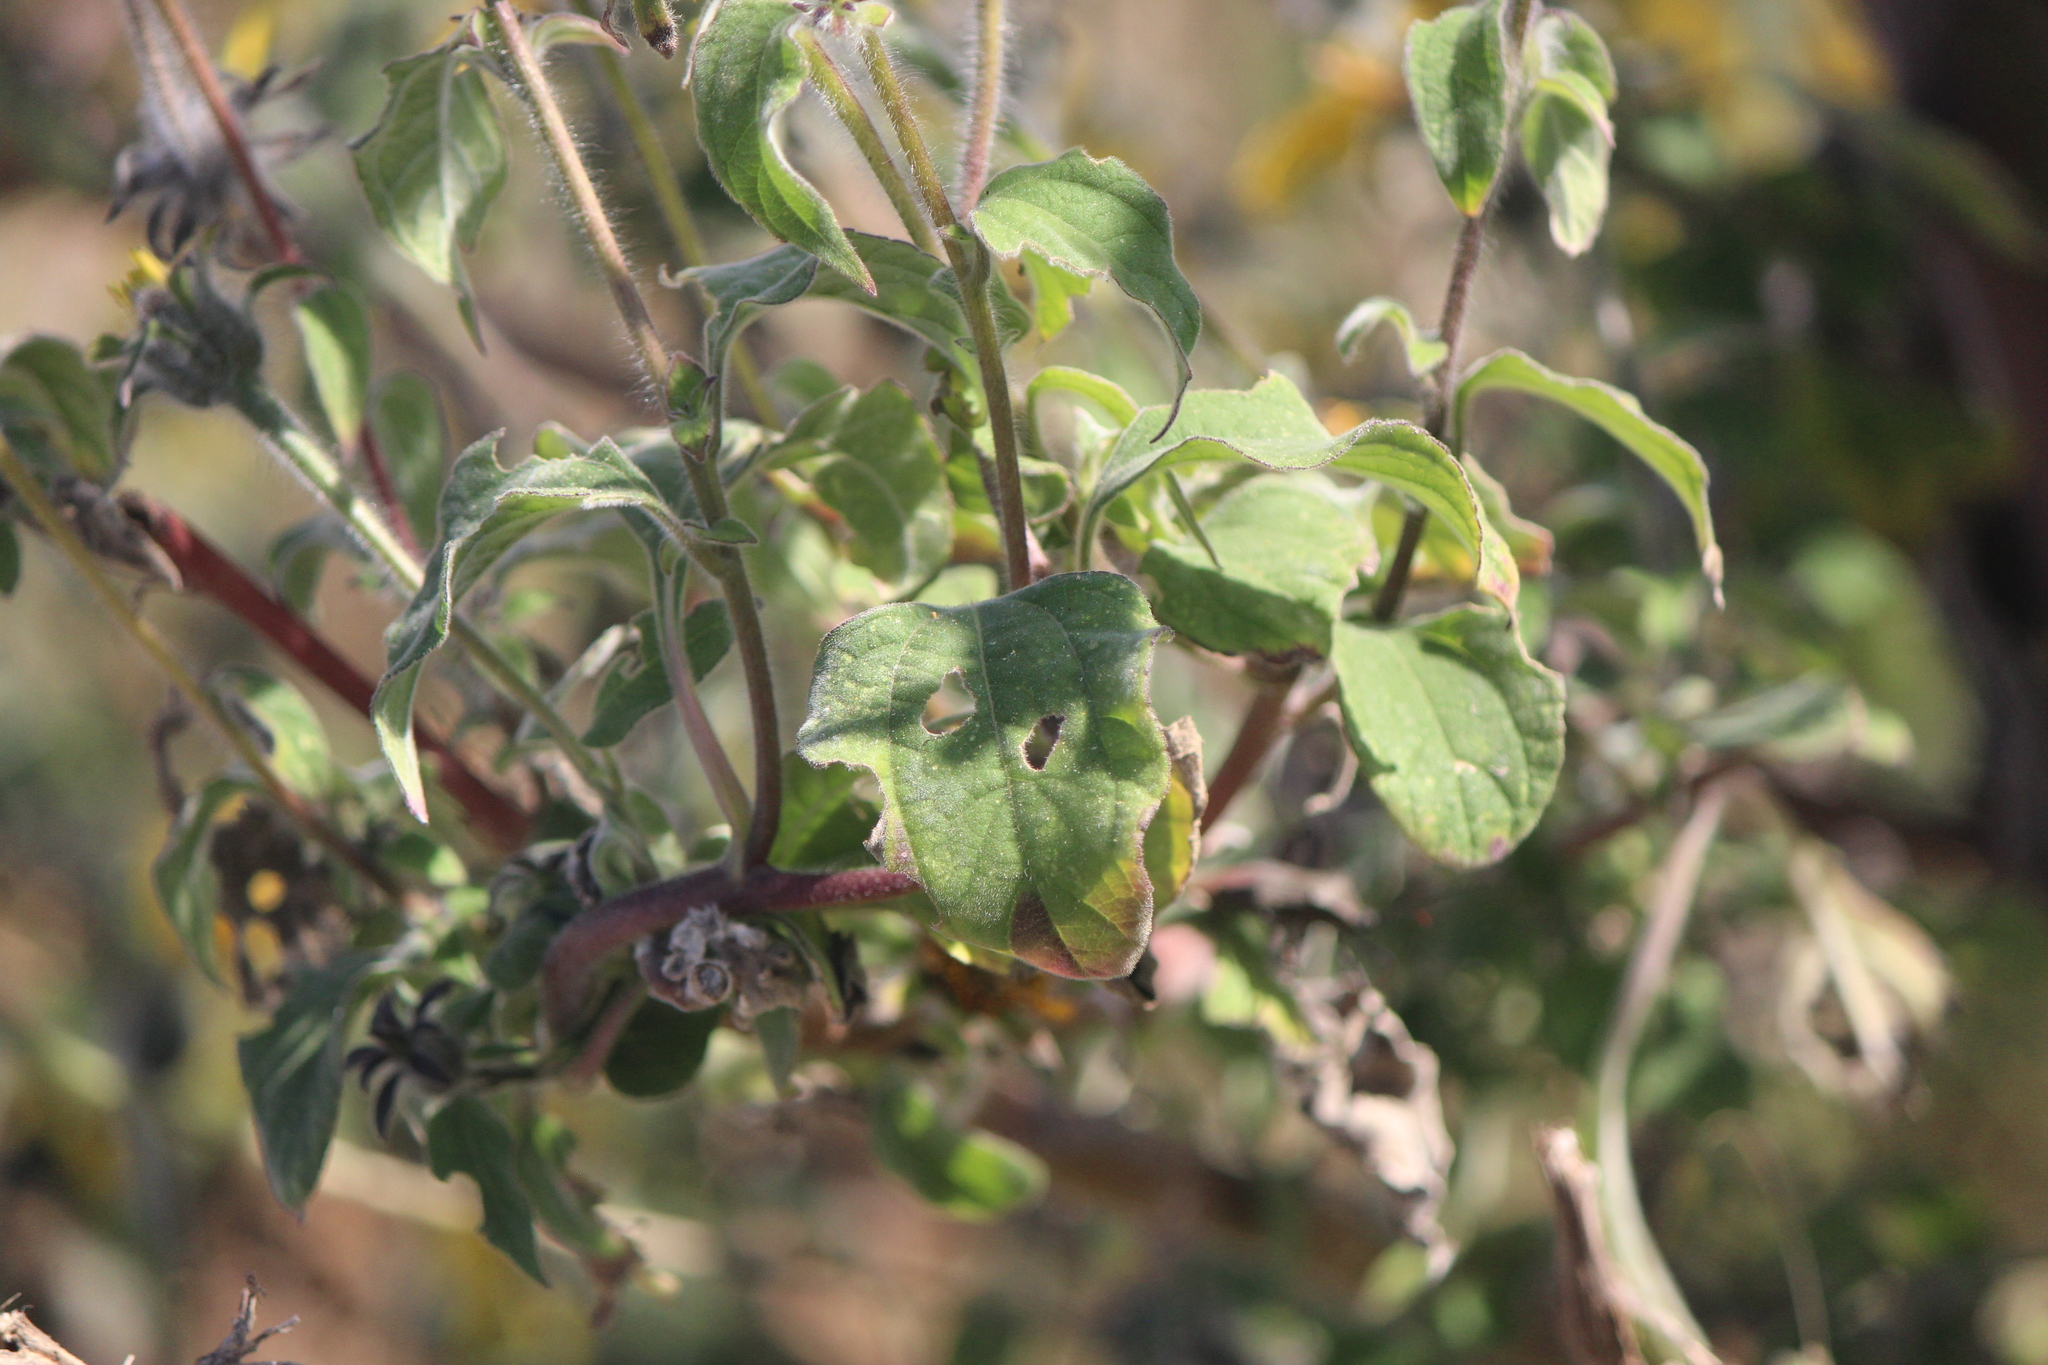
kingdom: Plantae
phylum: Tracheophyta
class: Magnoliopsida
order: Asterales
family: Asteraceae
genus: Tithonia
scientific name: Tithonia tubaeformis
